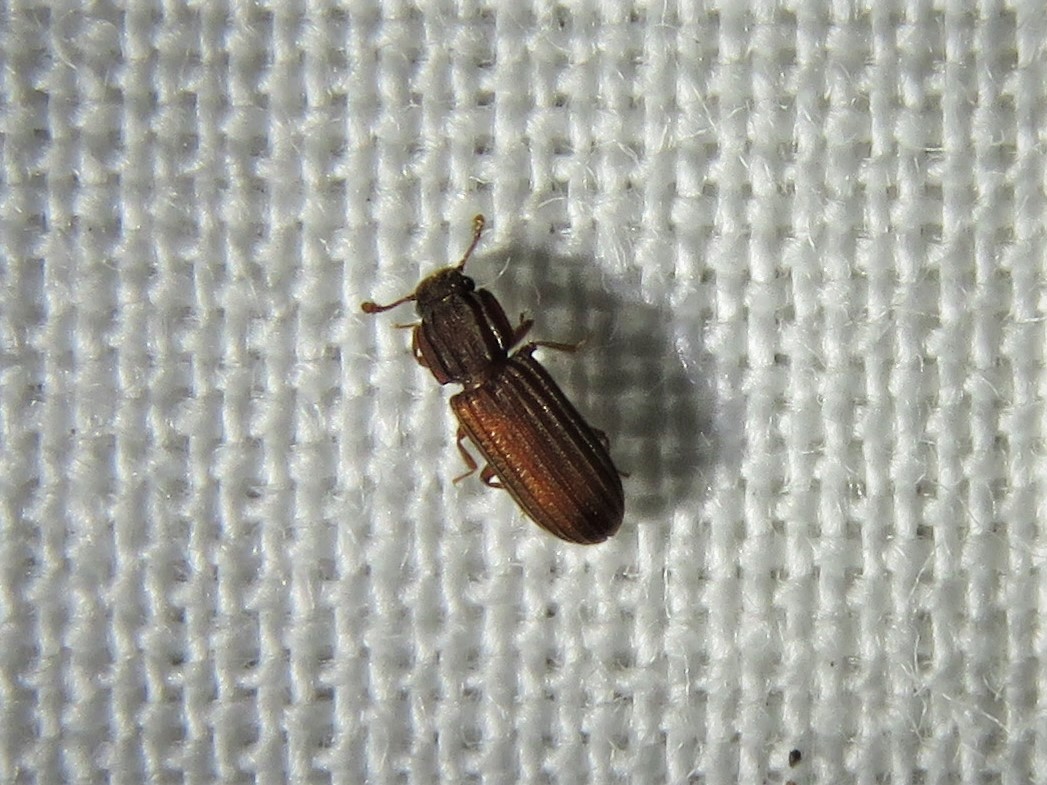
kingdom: Animalia
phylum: Arthropoda
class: Insecta
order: Coleoptera
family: Zopheridae
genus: Bitoma
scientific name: Bitoma sulcata
